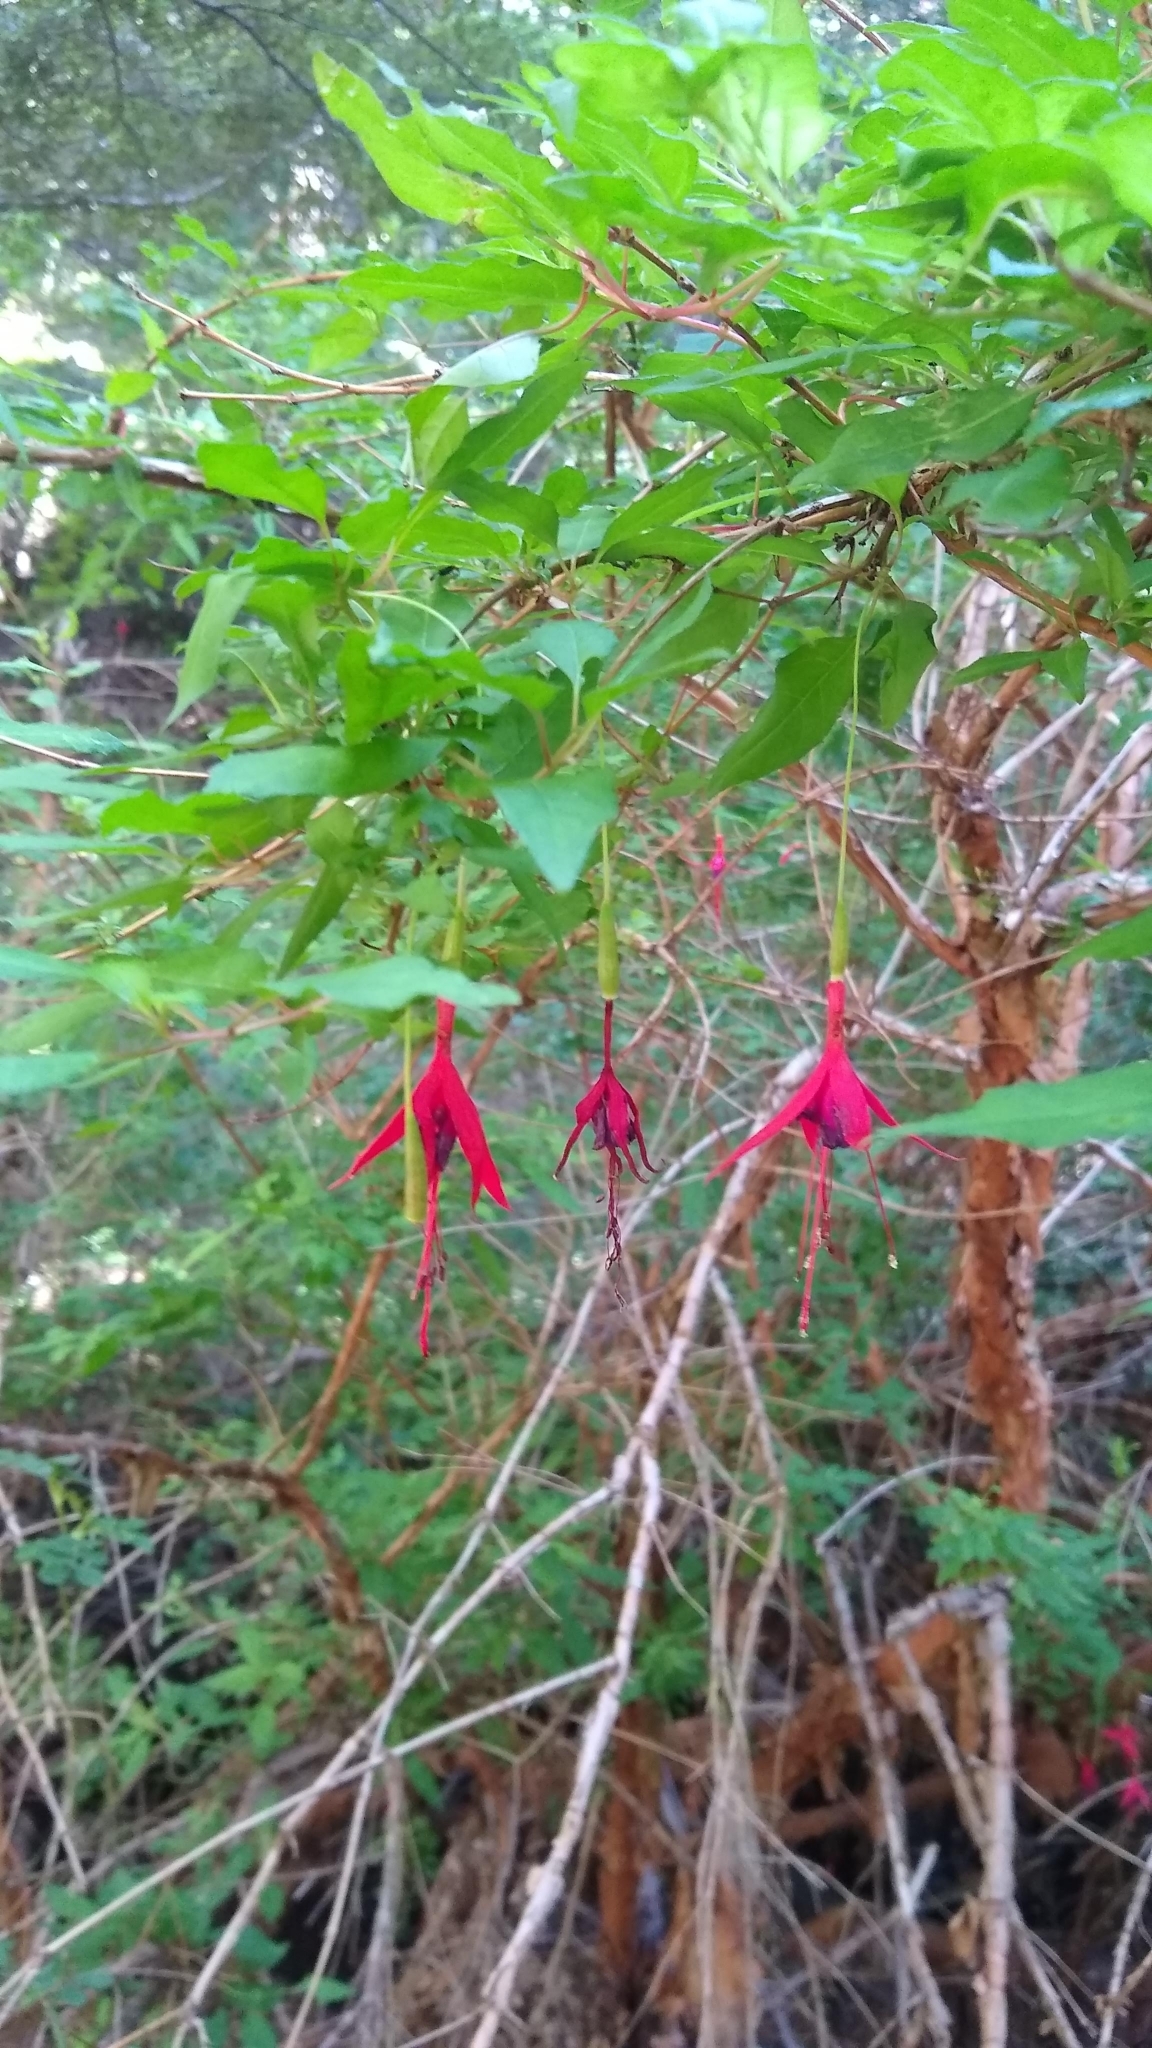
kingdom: Plantae
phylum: Tracheophyta
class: Magnoliopsida
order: Myrtales
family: Onagraceae
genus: Fuchsia
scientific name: Fuchsia magellanica
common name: Hardy fuchsia
